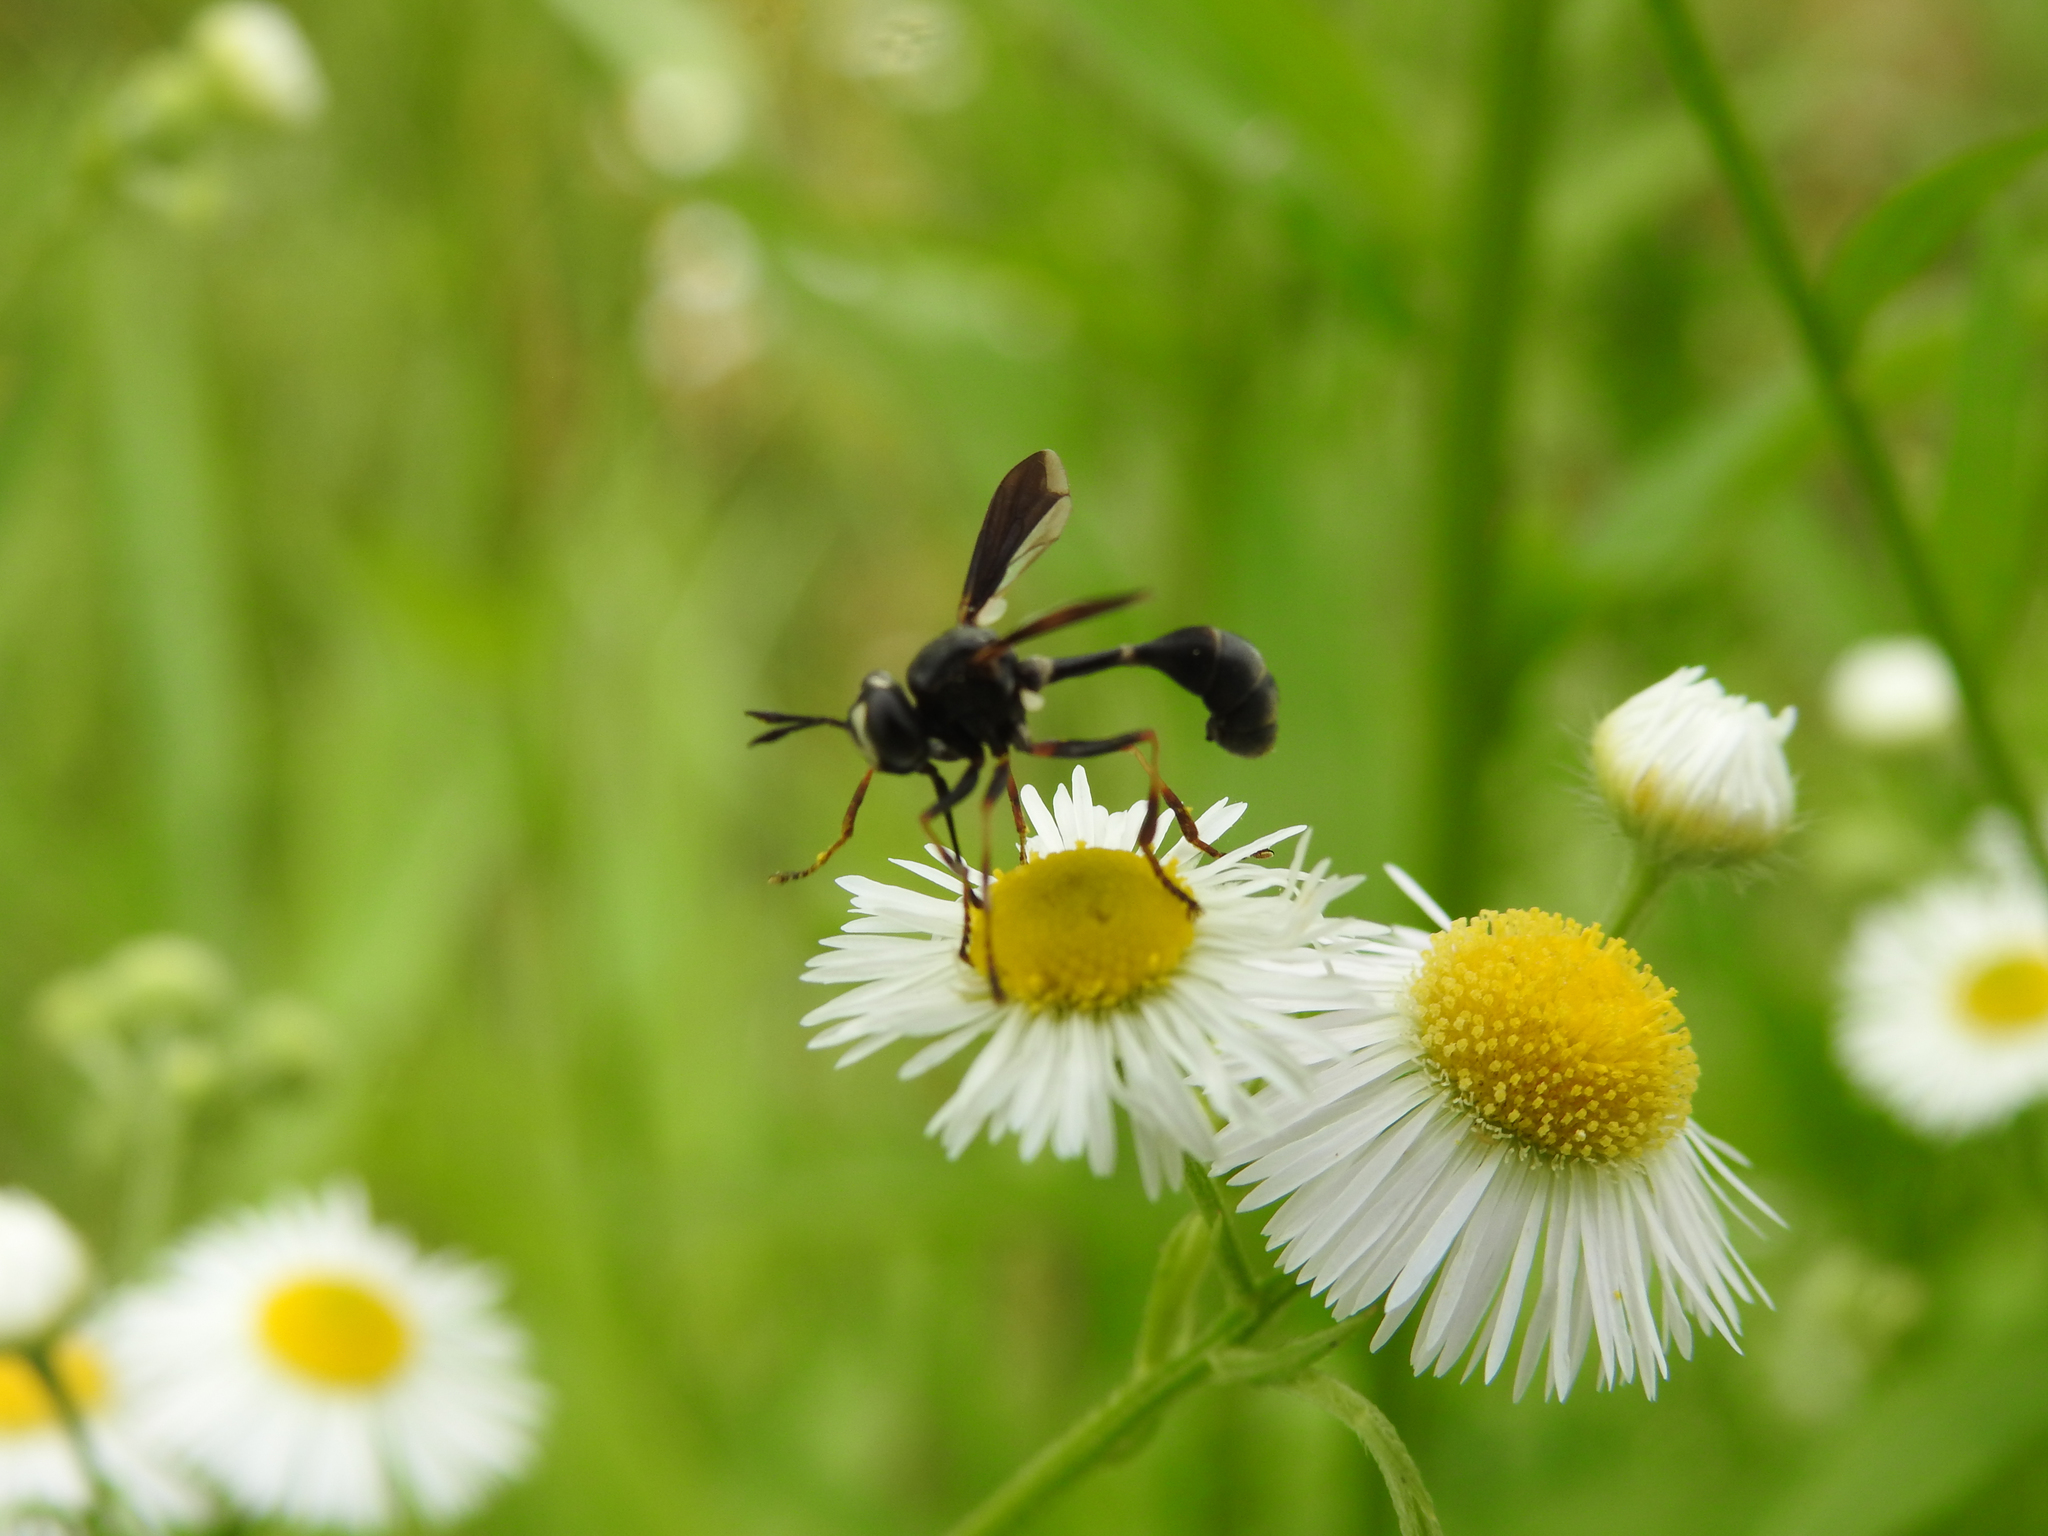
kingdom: Animalia
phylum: Arthropoda
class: Insecta
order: Diptera
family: Conopidae
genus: Physocephala
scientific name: Physocephala tibialis
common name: Common eastern physocephala
